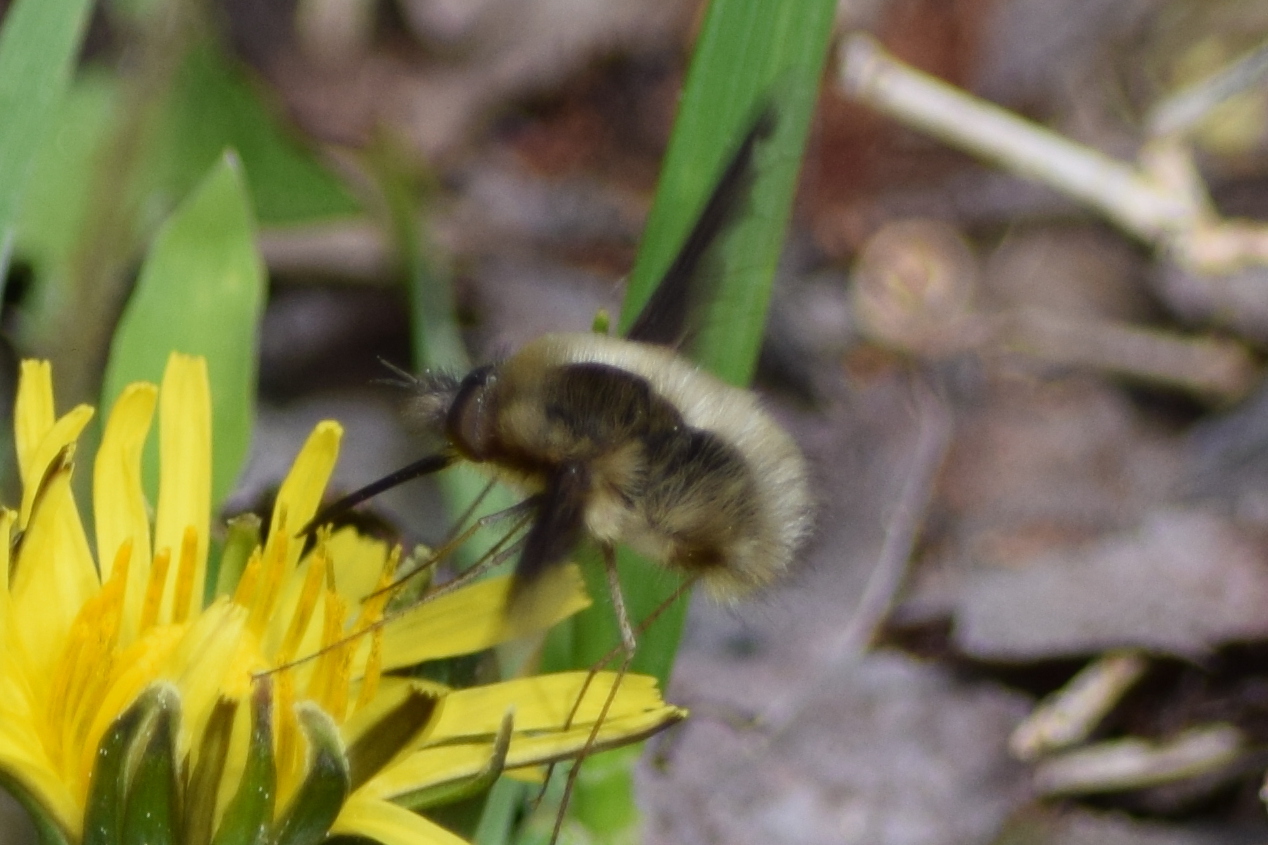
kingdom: Animalia
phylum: Arthropoda
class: Insecta
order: Diptera
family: Bombyliidae
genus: Bombylius
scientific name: Bombylius major
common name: Bee fly
